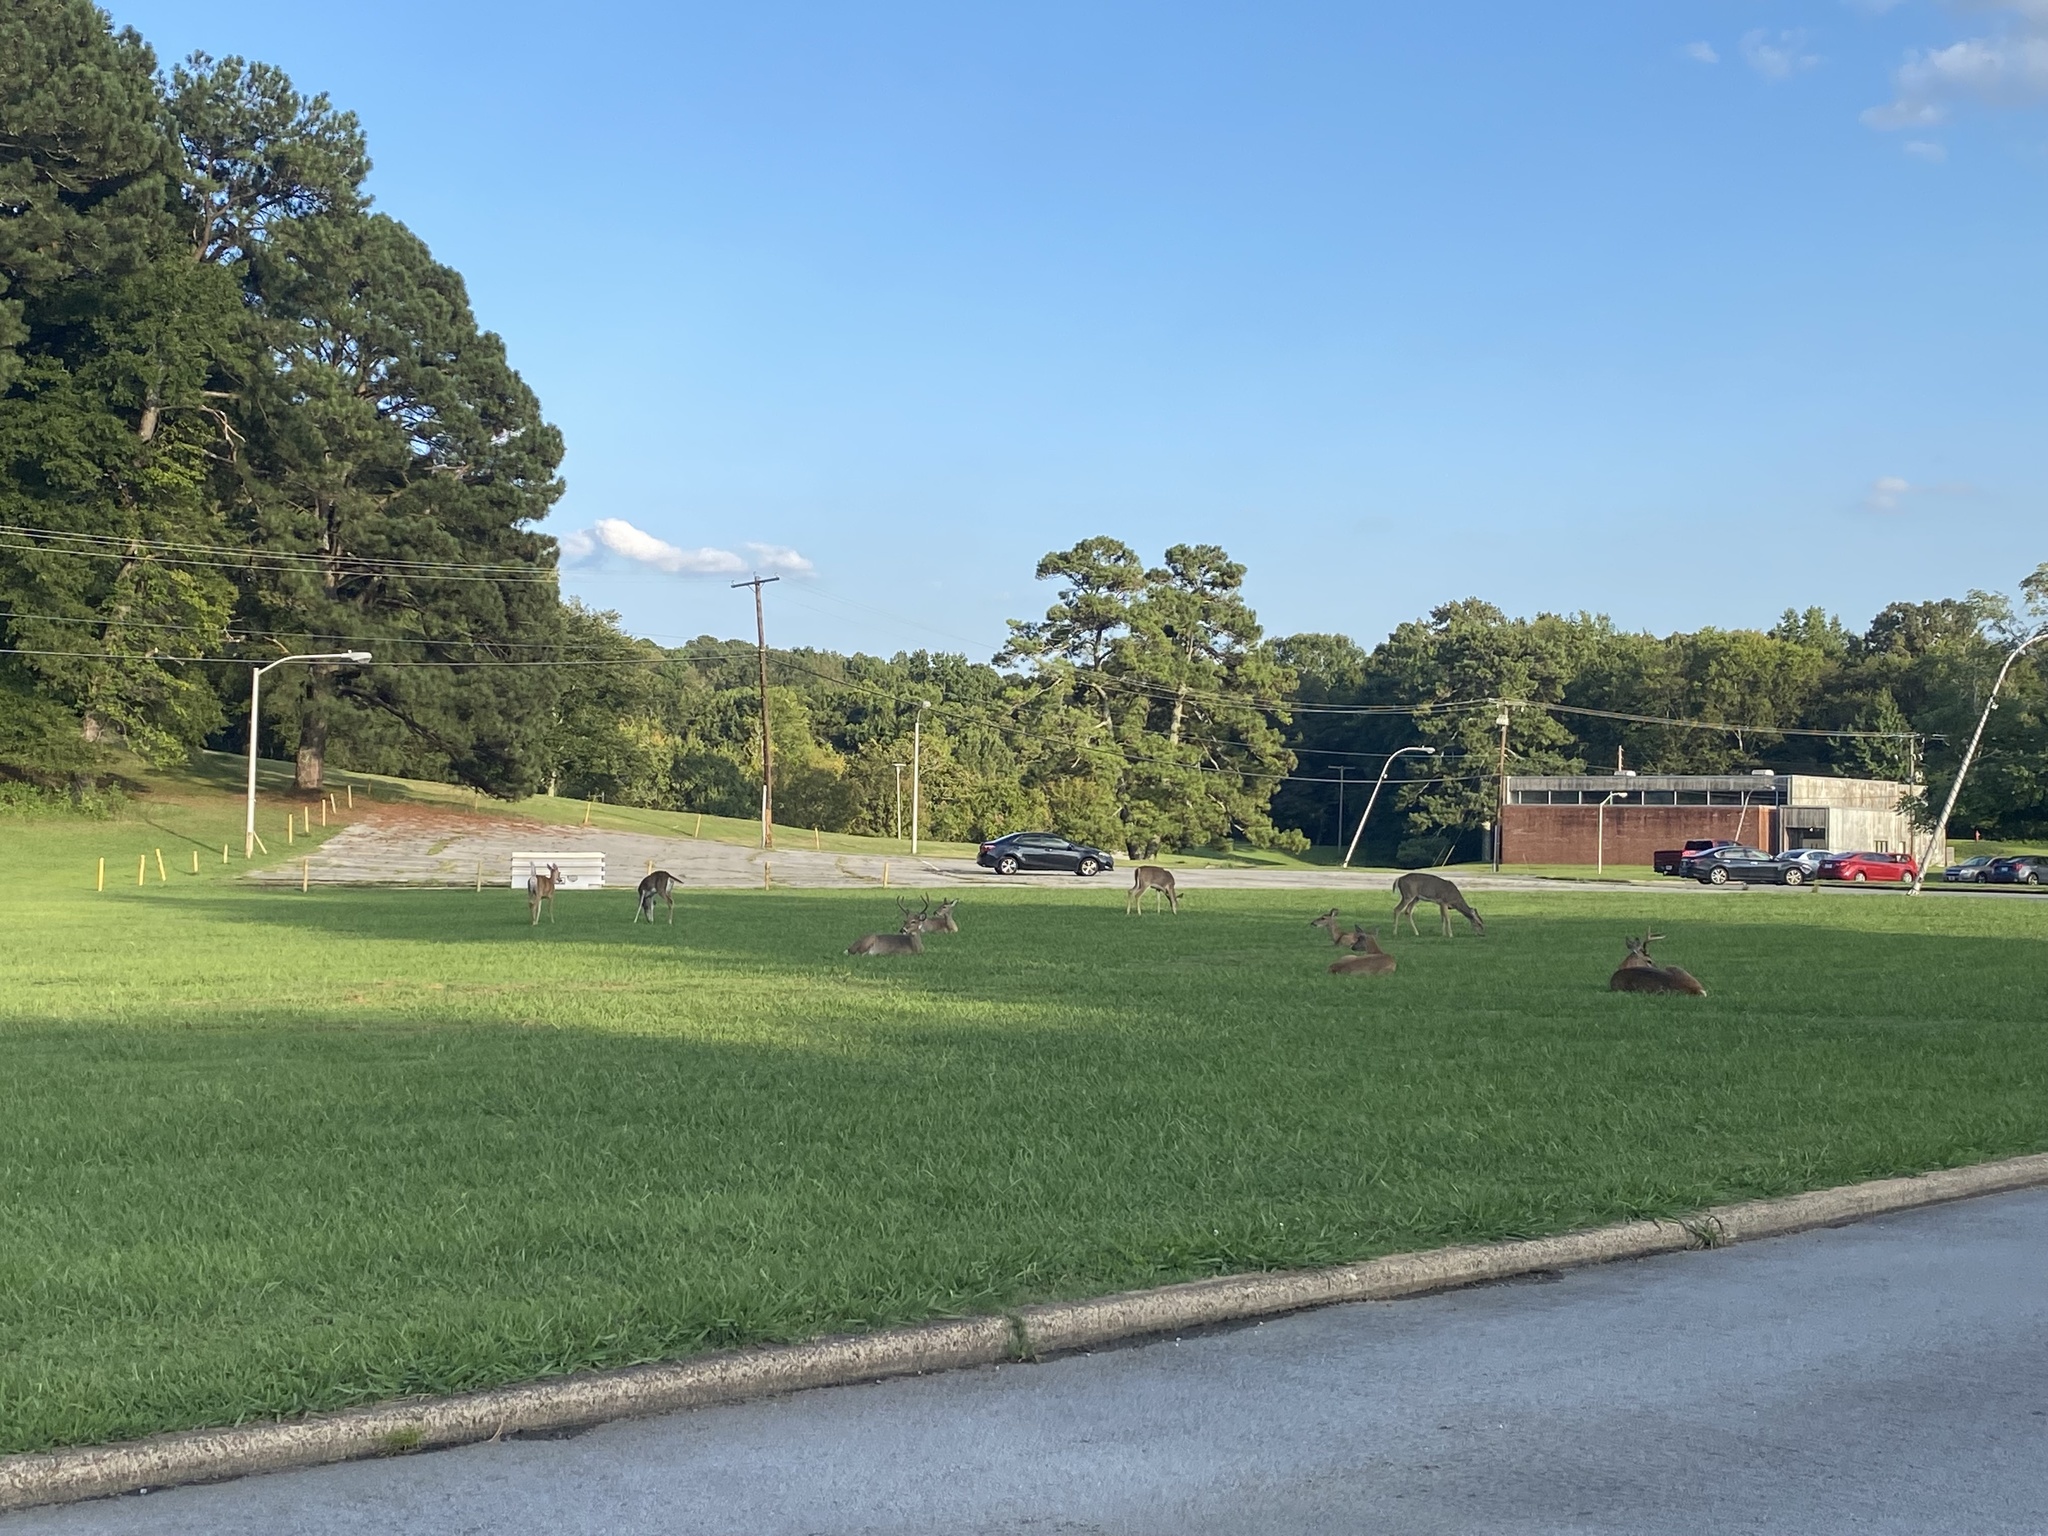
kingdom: Animalia
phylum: Chordata
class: Mammalia
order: Artiodactyla
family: Cervidae
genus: Odocoileus
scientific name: Odocoileus virginianus
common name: White-tailed deer
